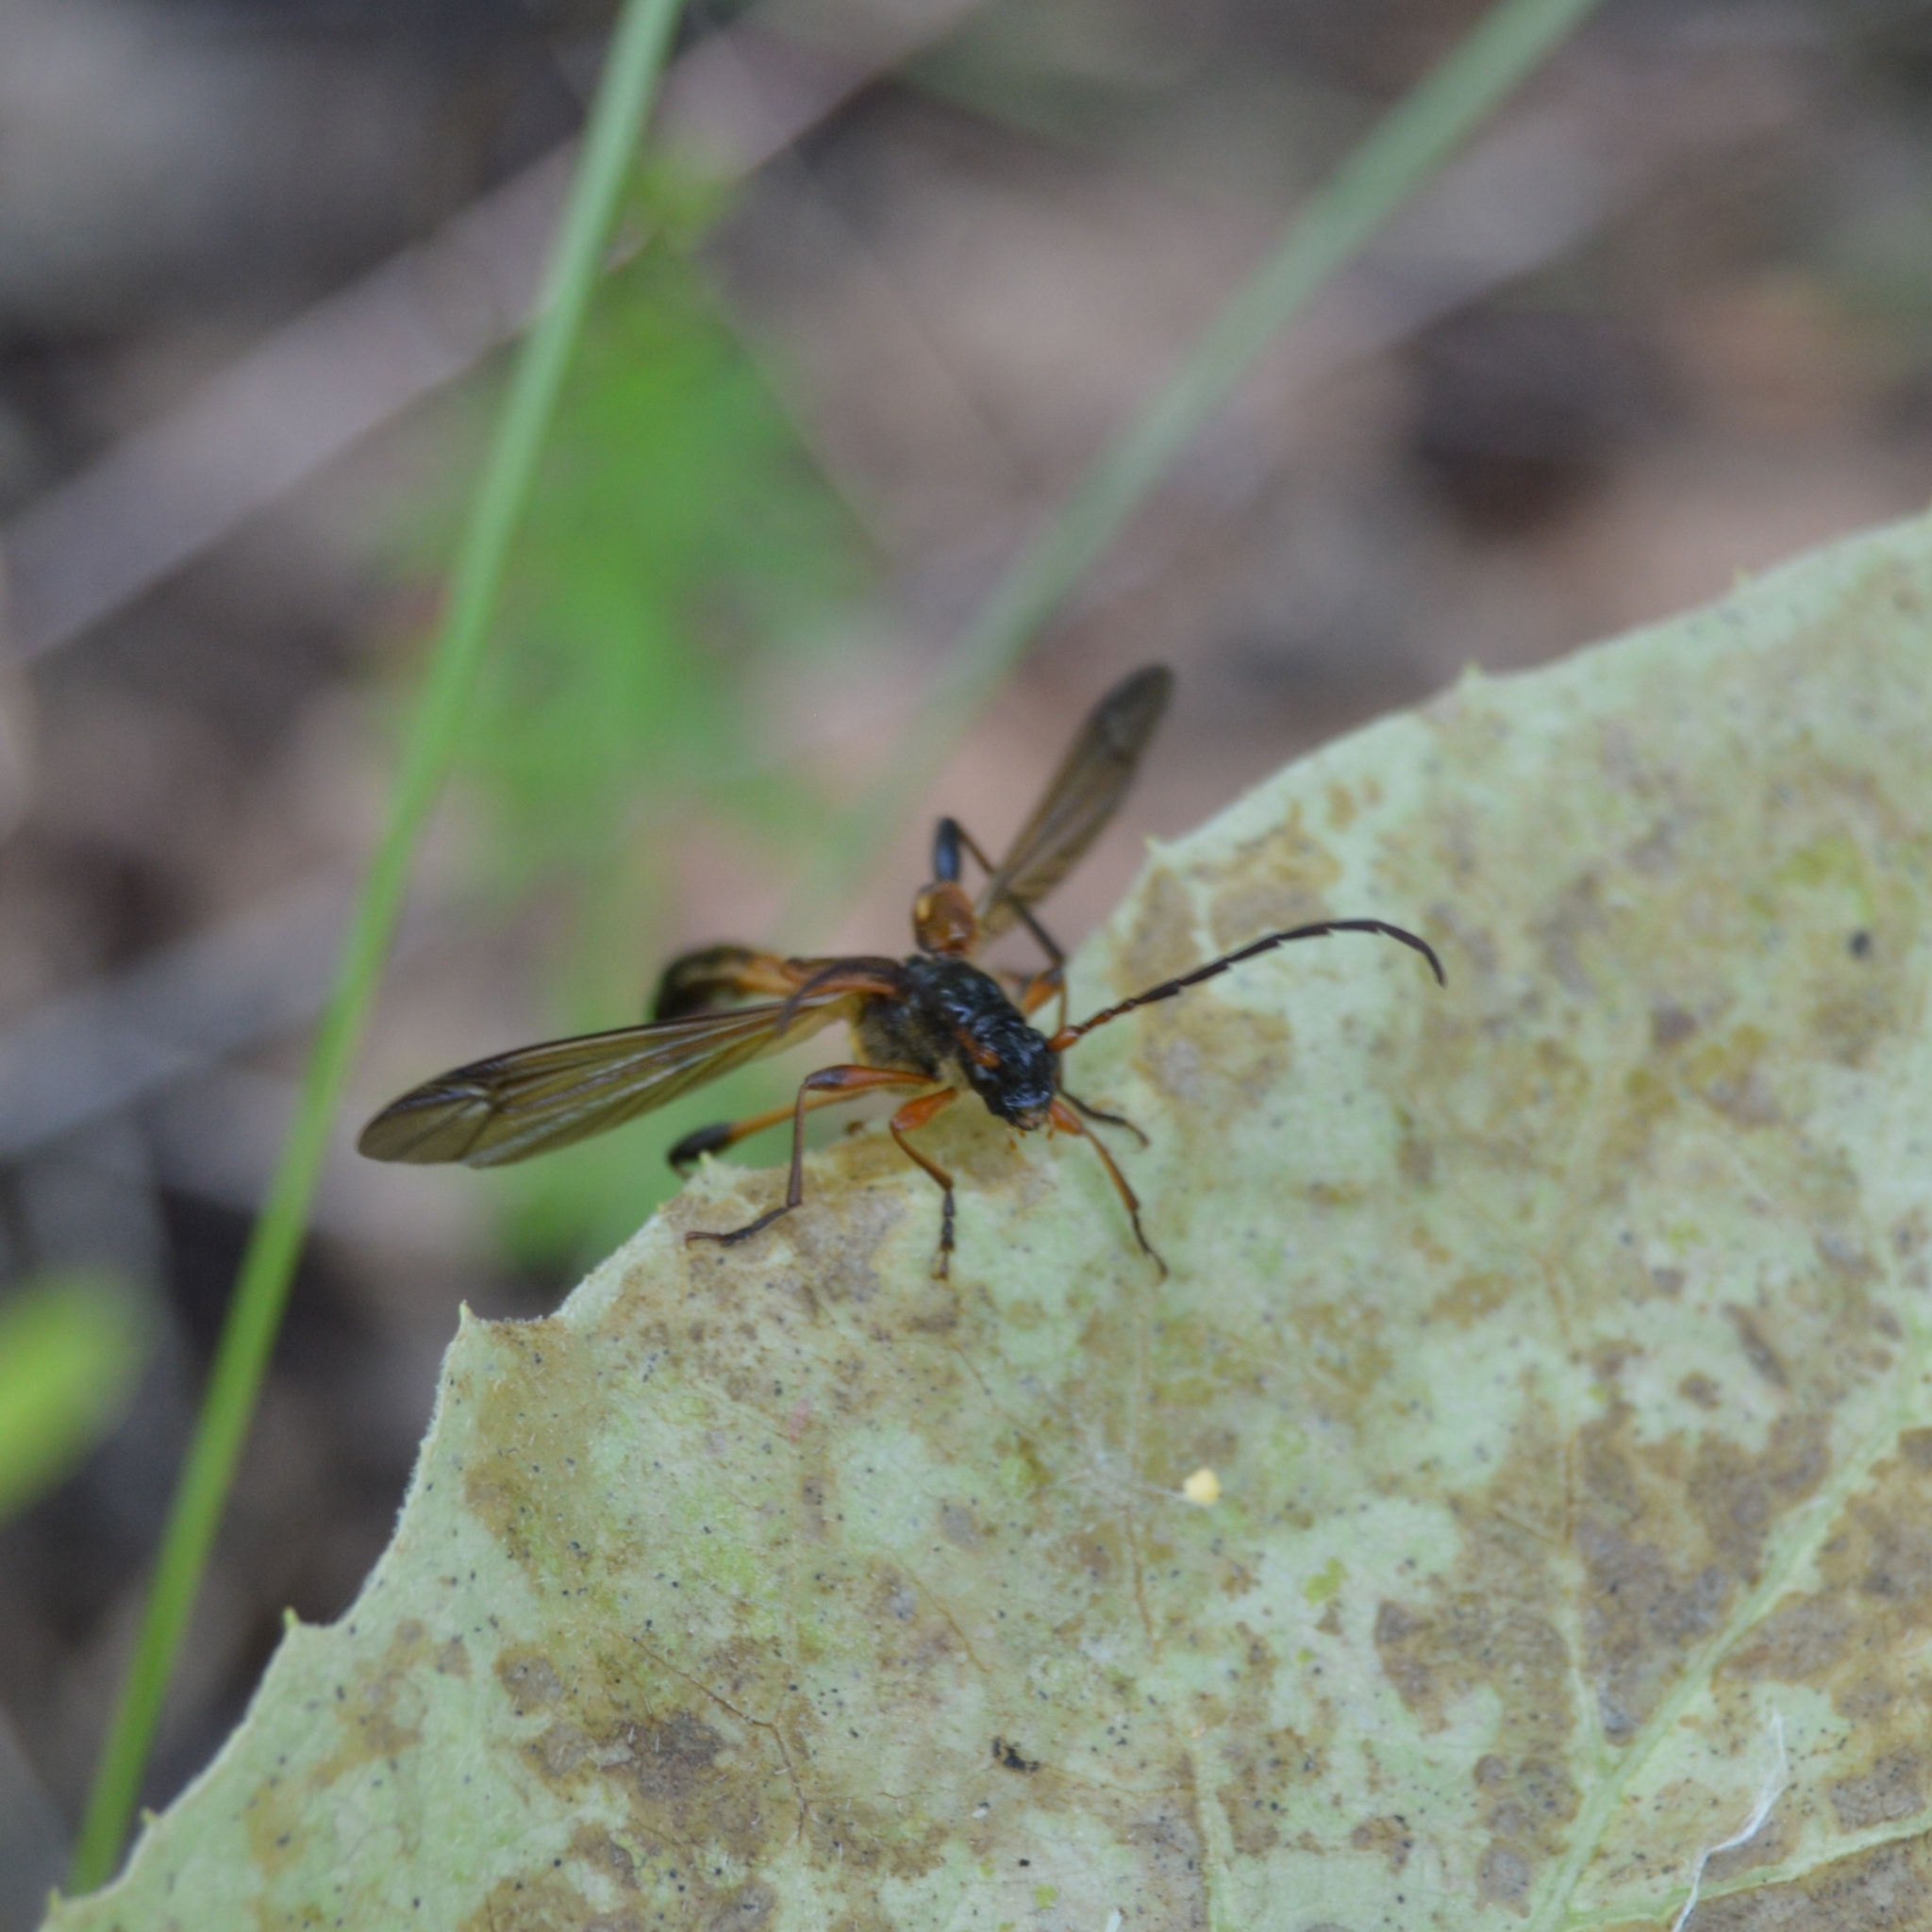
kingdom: Animalia
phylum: Arthropoda
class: Insecta
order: Coleoptera
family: Cerambycidae
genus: Necydalis
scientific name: Necydalis major
